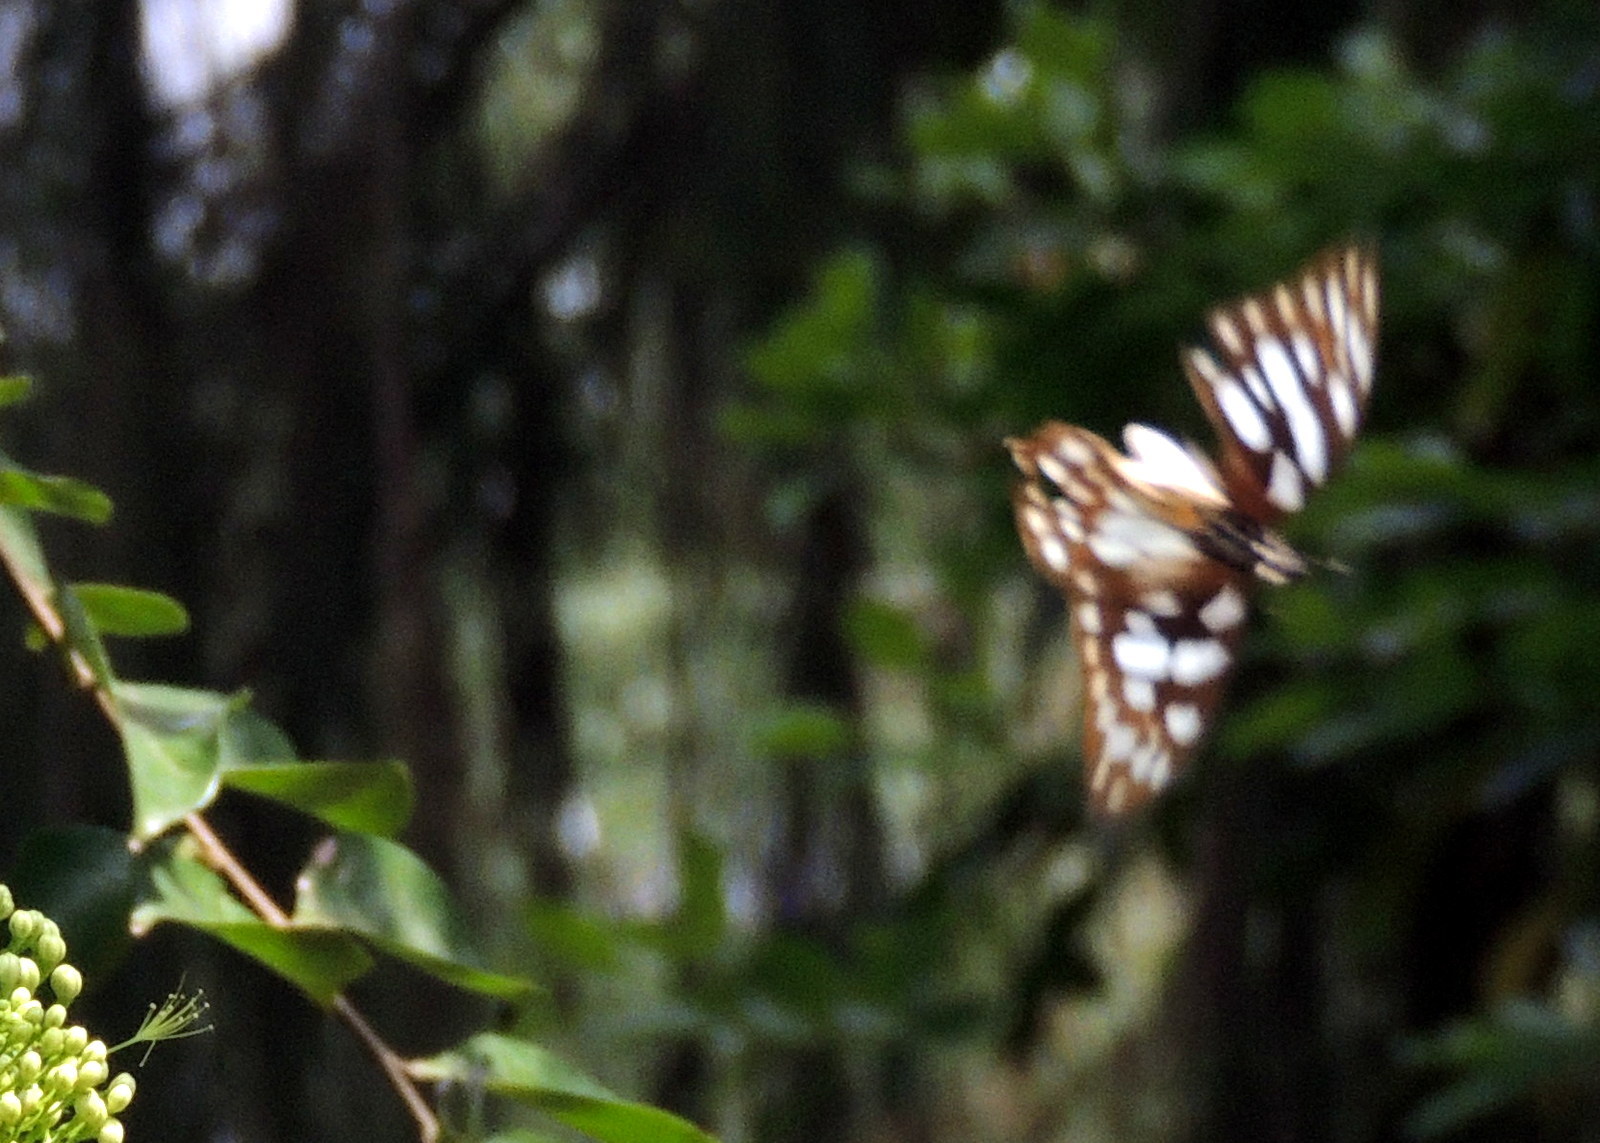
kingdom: Animalia
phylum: Arthropoda
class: Insecta
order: Lepidoptera
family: Papilionidae
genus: Graphium
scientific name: Graphium leonidas
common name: Common graphium
